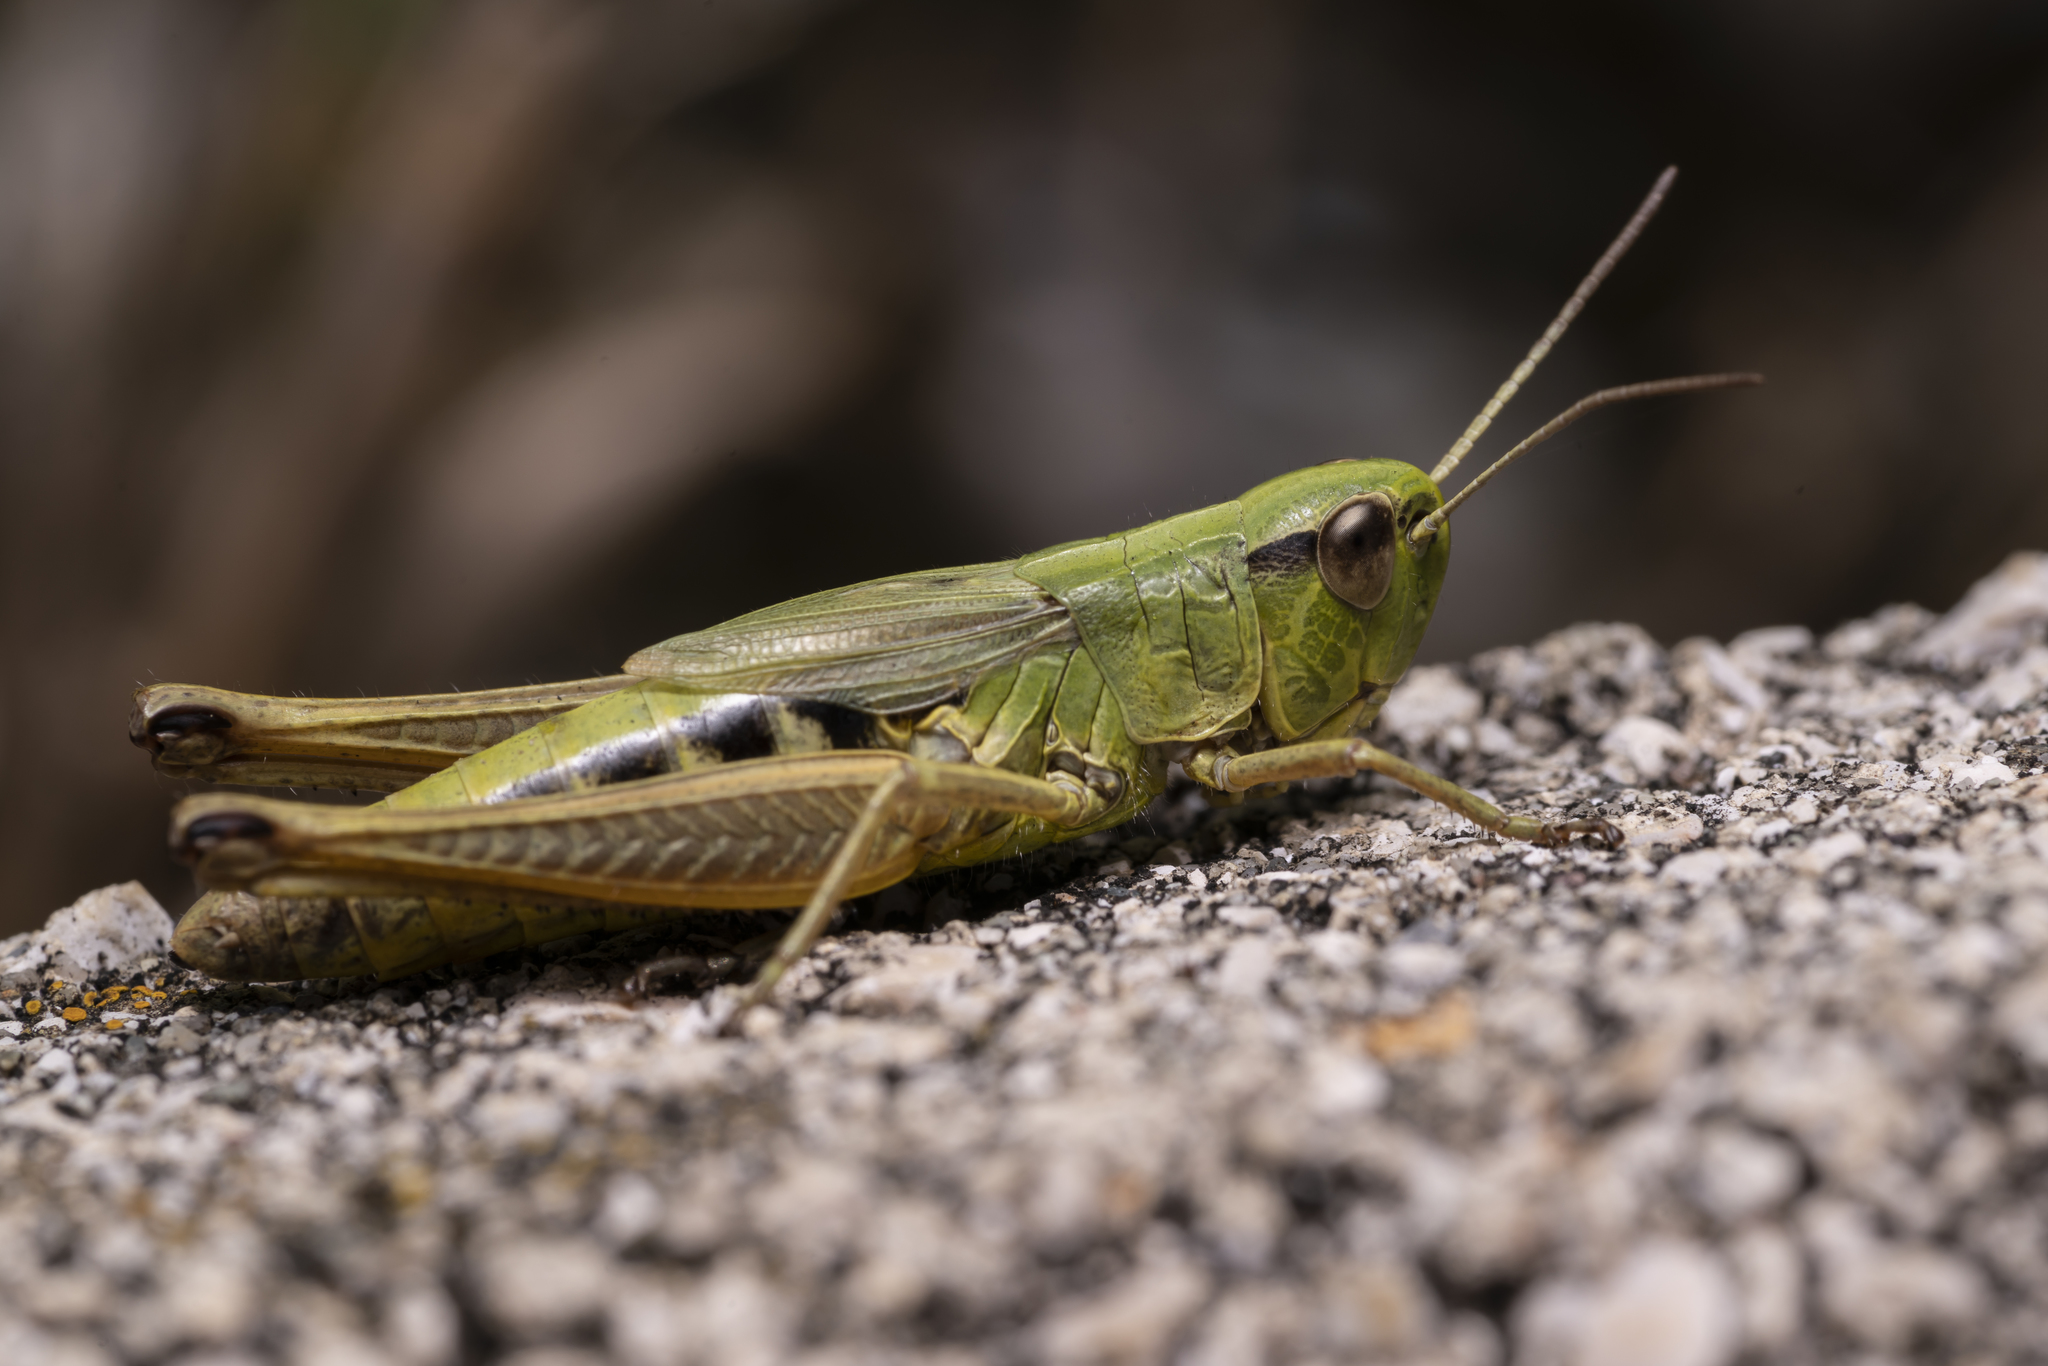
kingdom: Animalia
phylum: Arthropoda
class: Insecta
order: Orthoptera
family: Acrididae
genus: Pseudochorthippus
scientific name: Pseudochorthippus parallelus
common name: Meadow grasshopper
